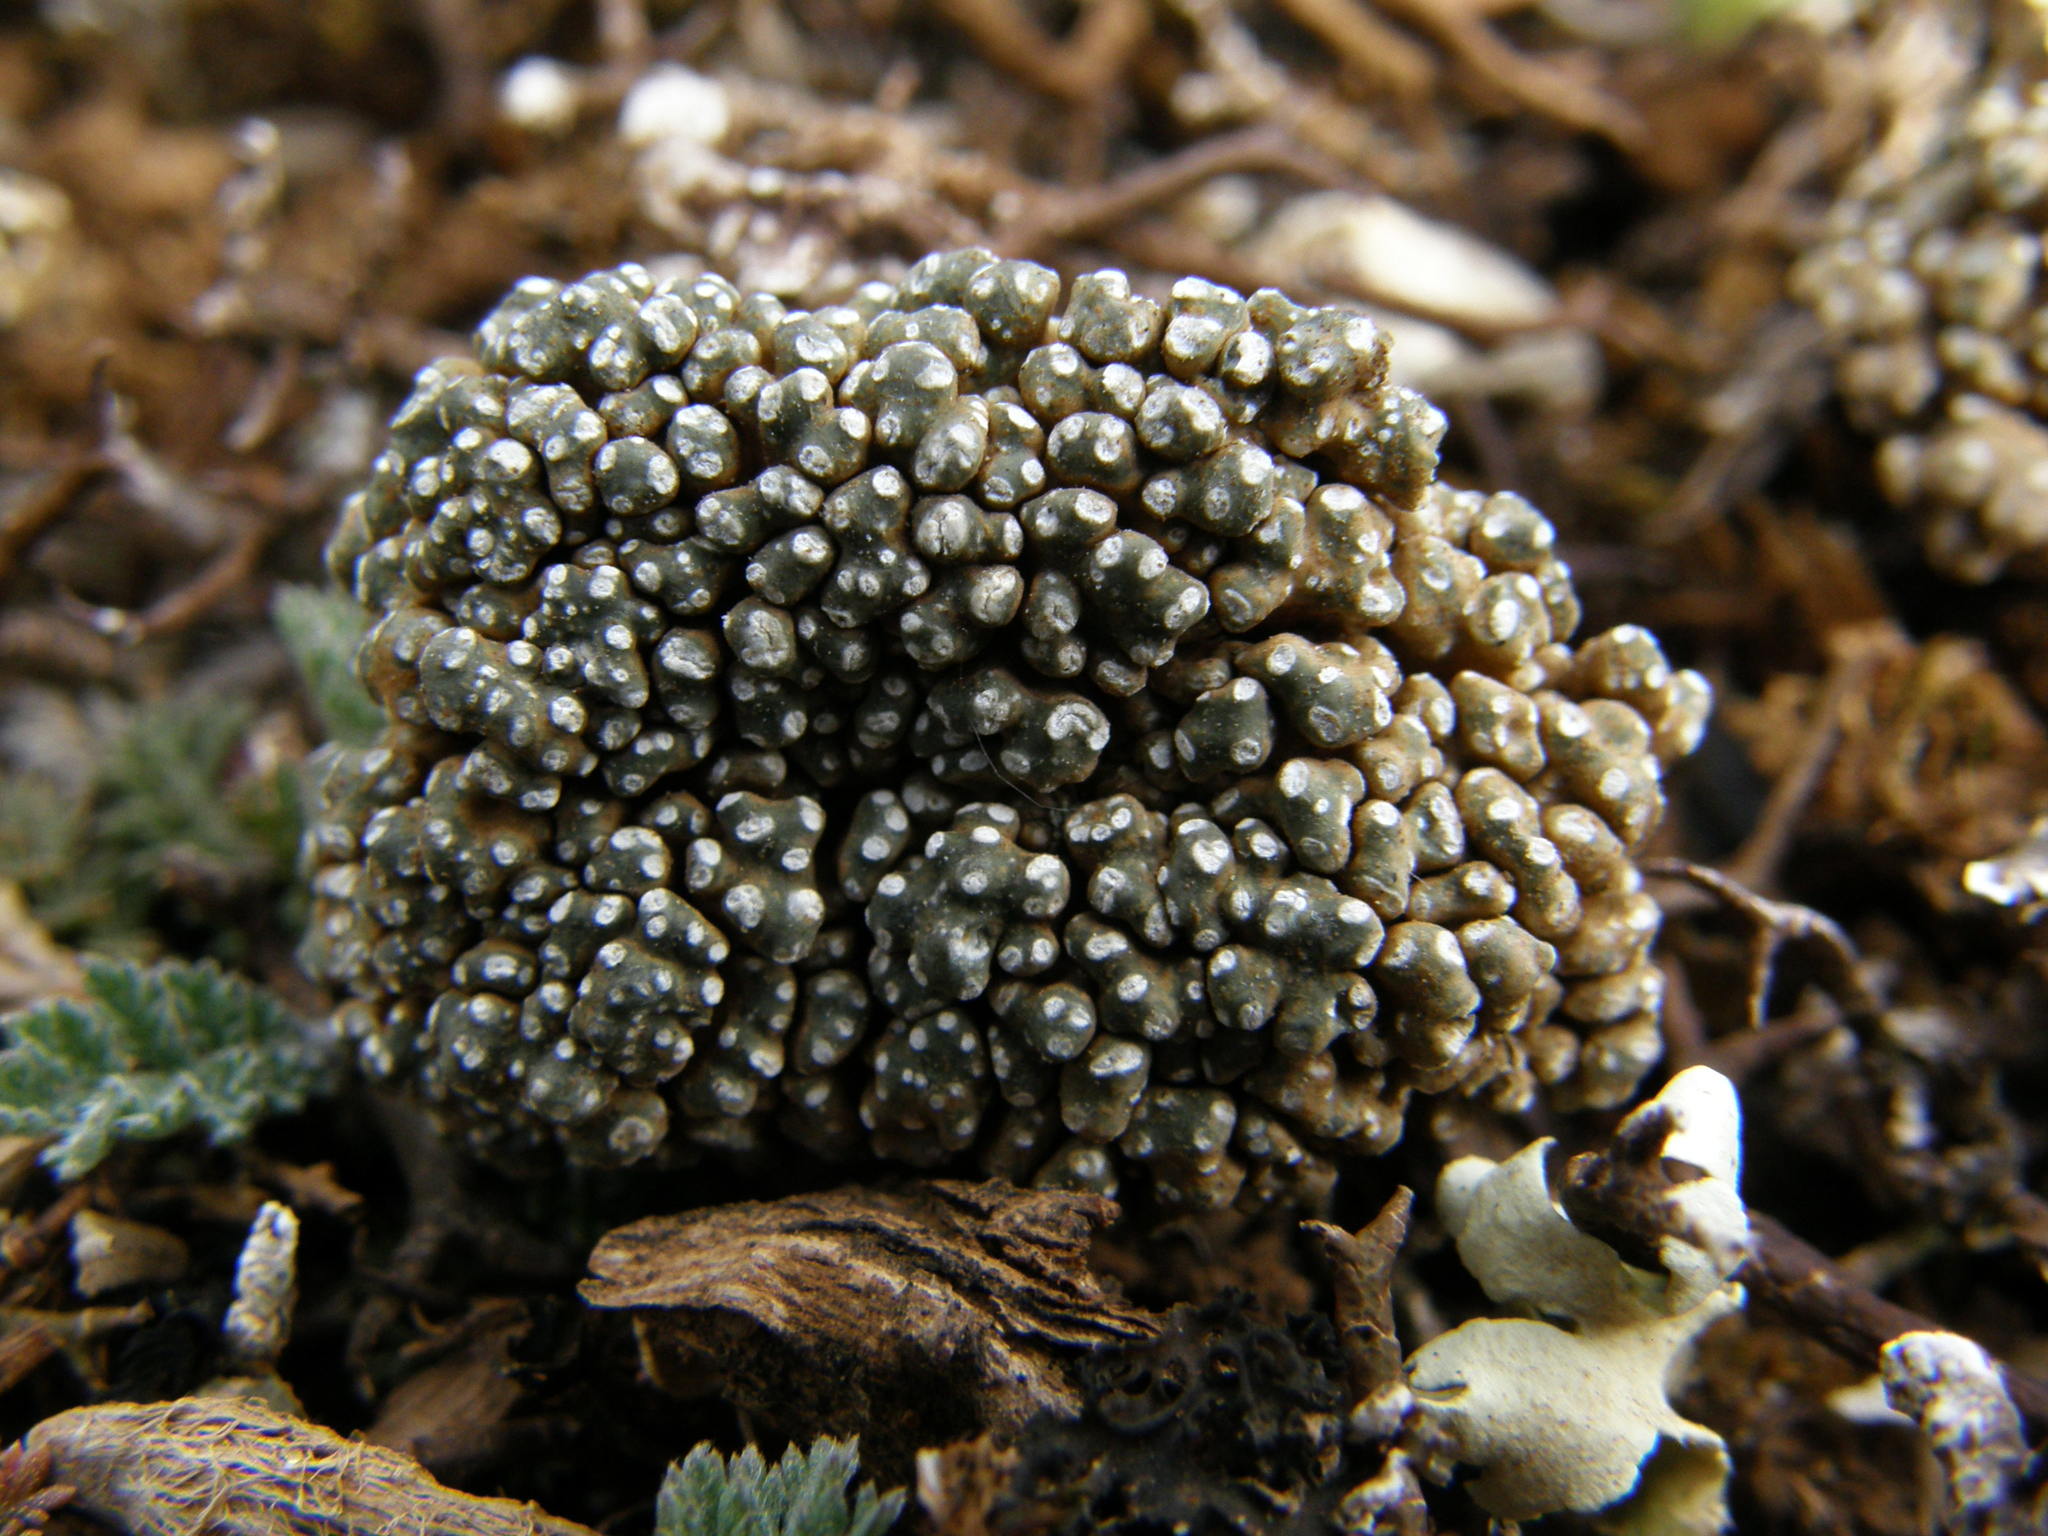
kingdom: Fungi
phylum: Ascomycota
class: Lecanoromycetes
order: Pertusariales
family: Megasporaceae
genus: Circinaria
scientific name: Circinaria fruticulosa
